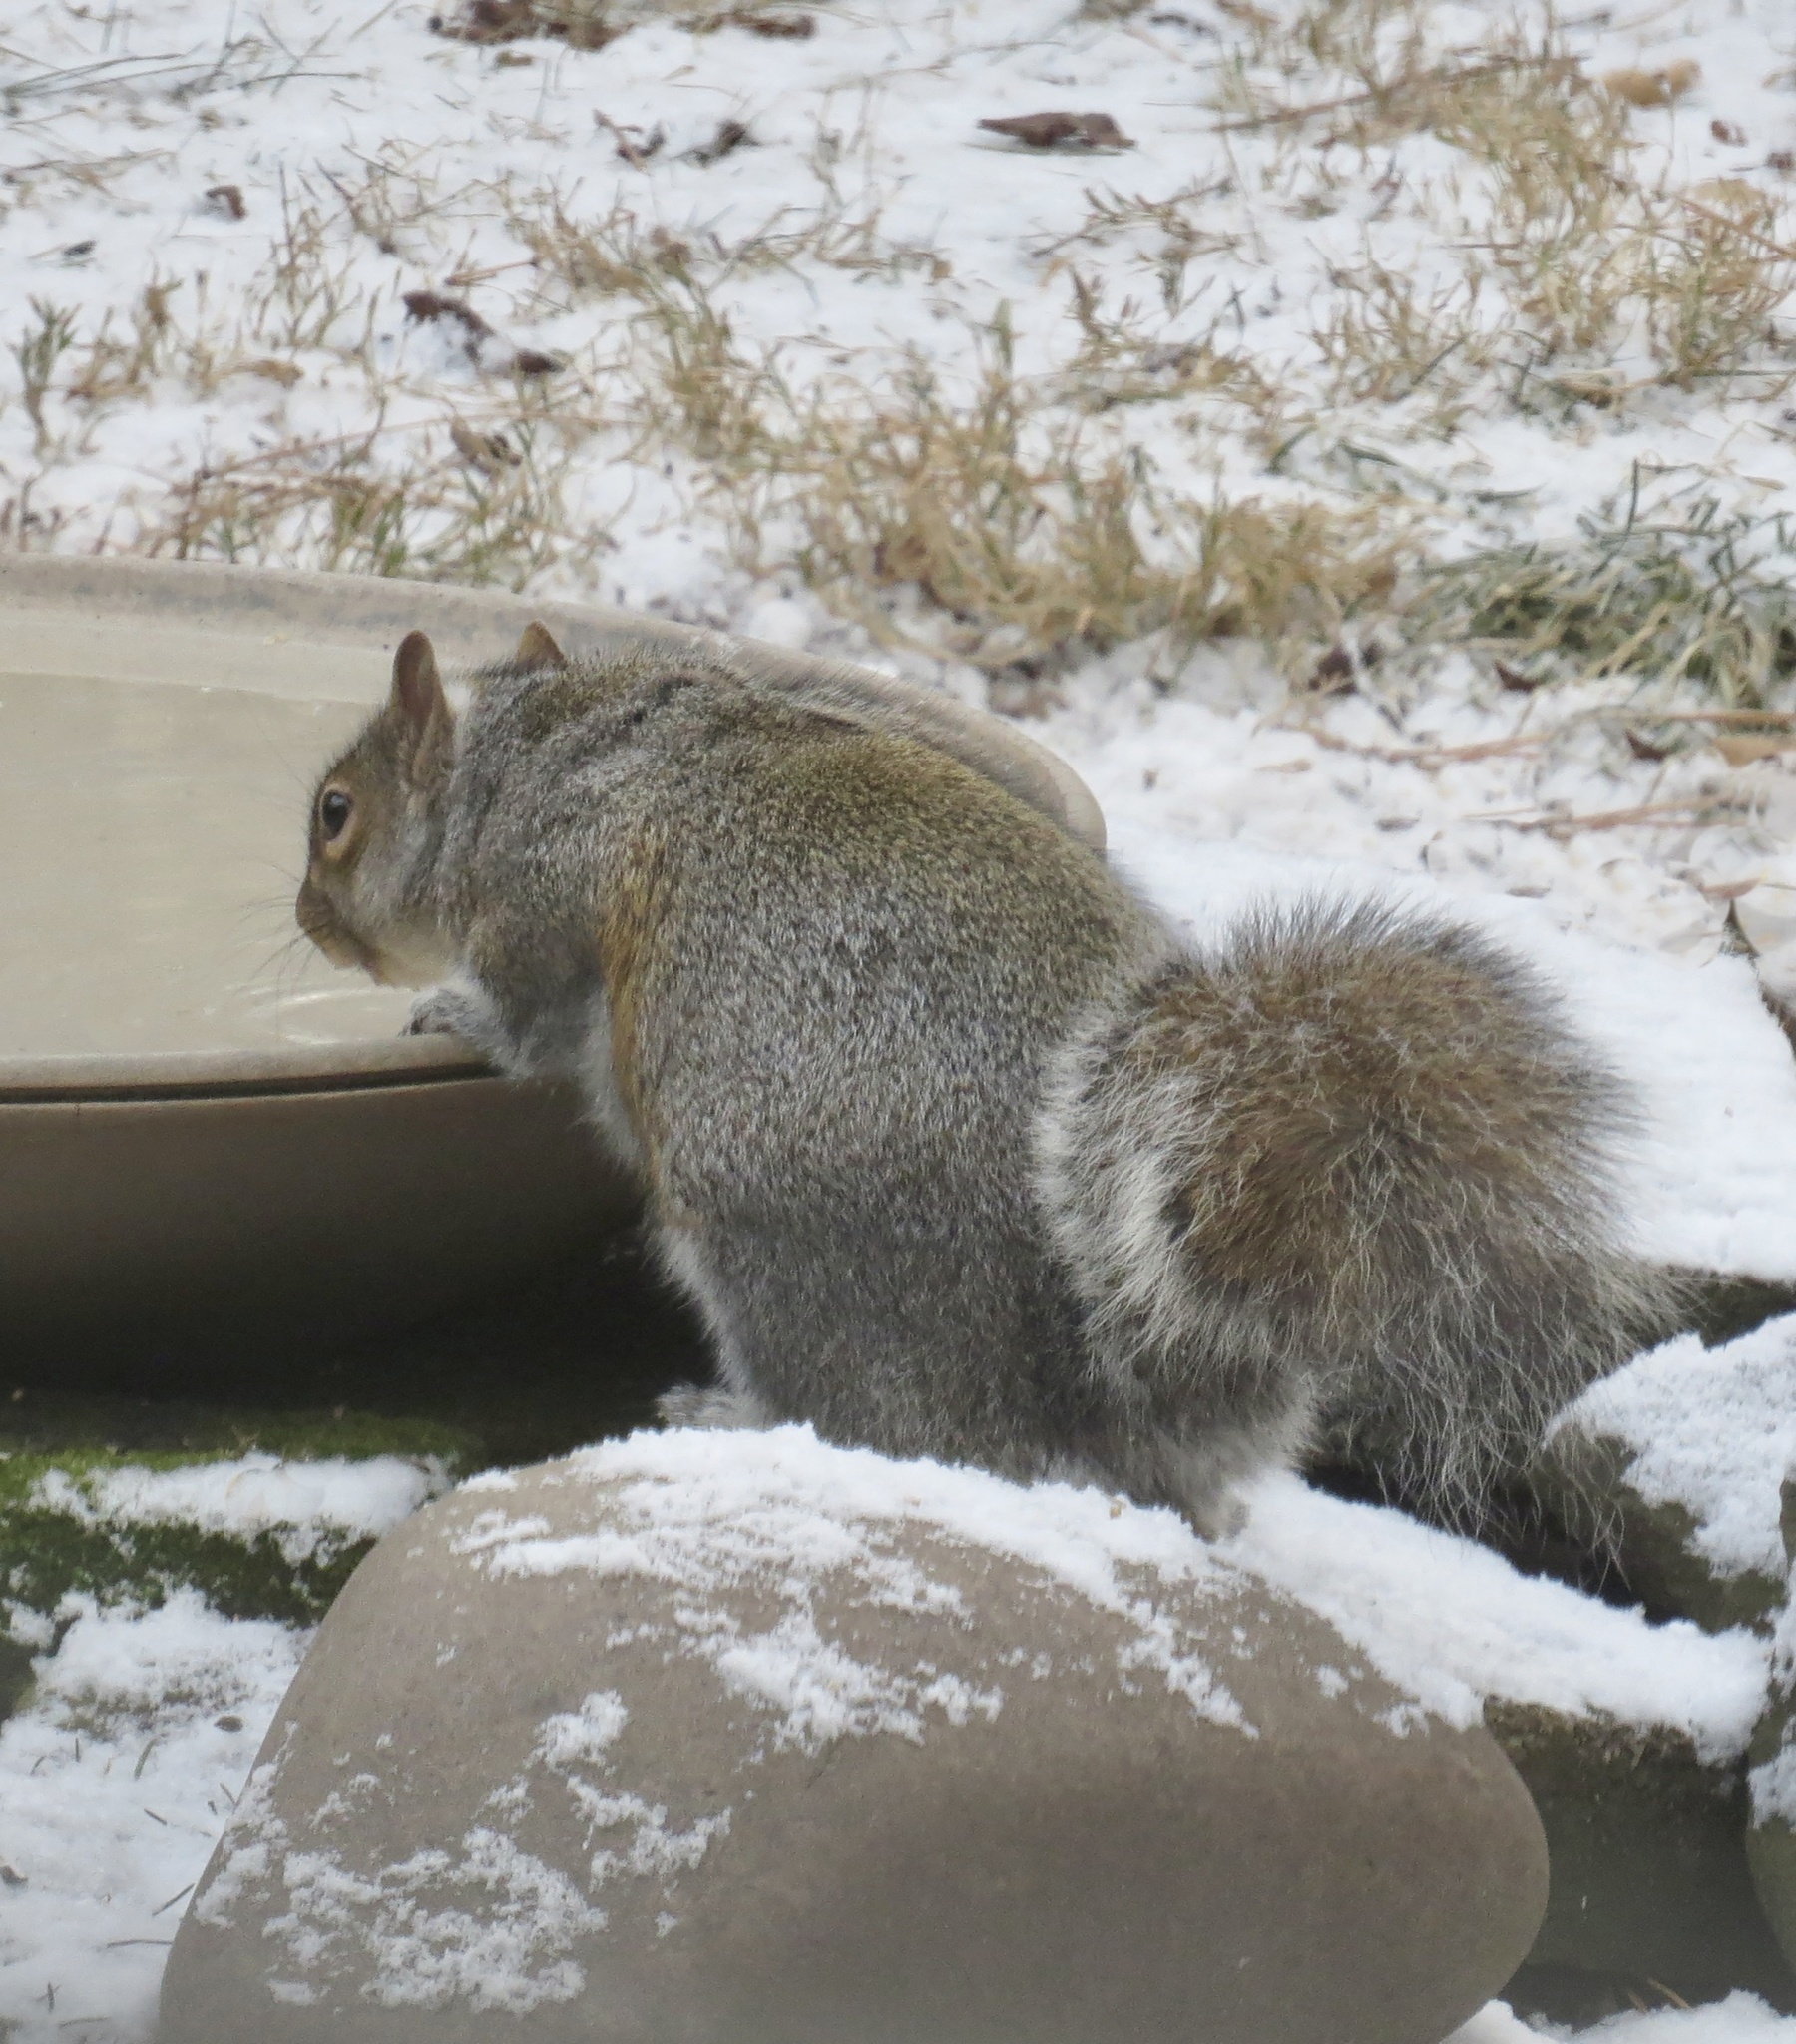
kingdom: Animalia
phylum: Chordata
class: Mammalia
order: Rodentia
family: Sciuridae
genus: Sciurus
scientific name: Sciurus carolinensis
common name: Eastern gray squirrel
